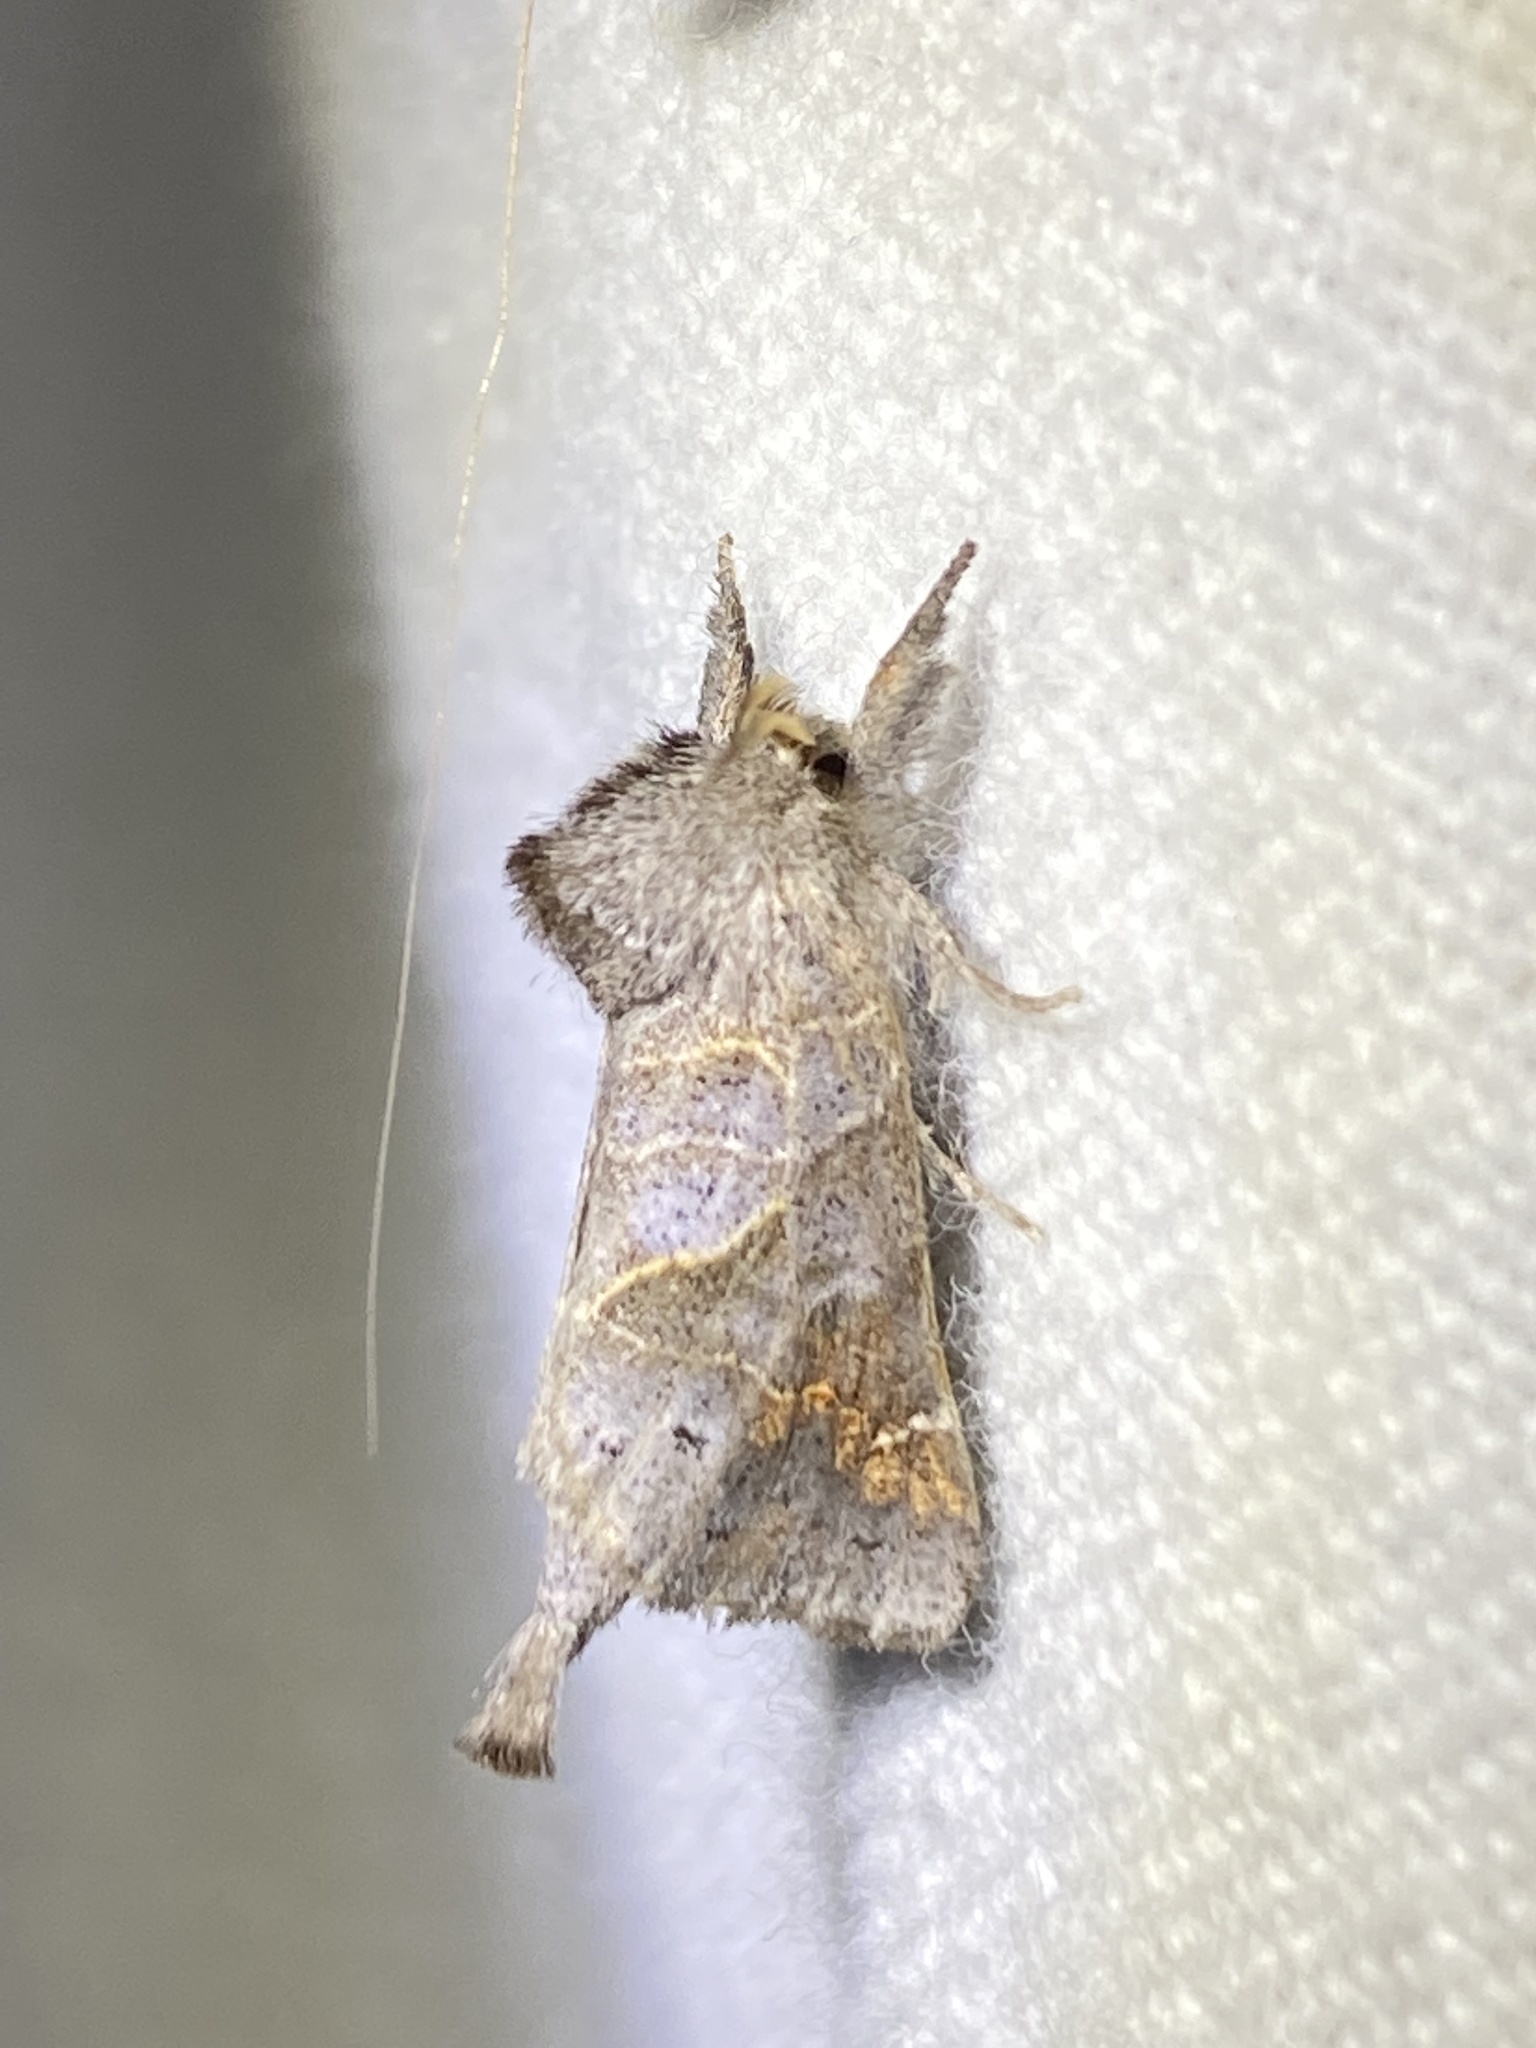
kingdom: Animalia
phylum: Arthropoda
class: Insecta
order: Lepidoptera
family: Notodontidae
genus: Clostera
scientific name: Clostera strigosa
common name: Striped chocolate-tip moth
